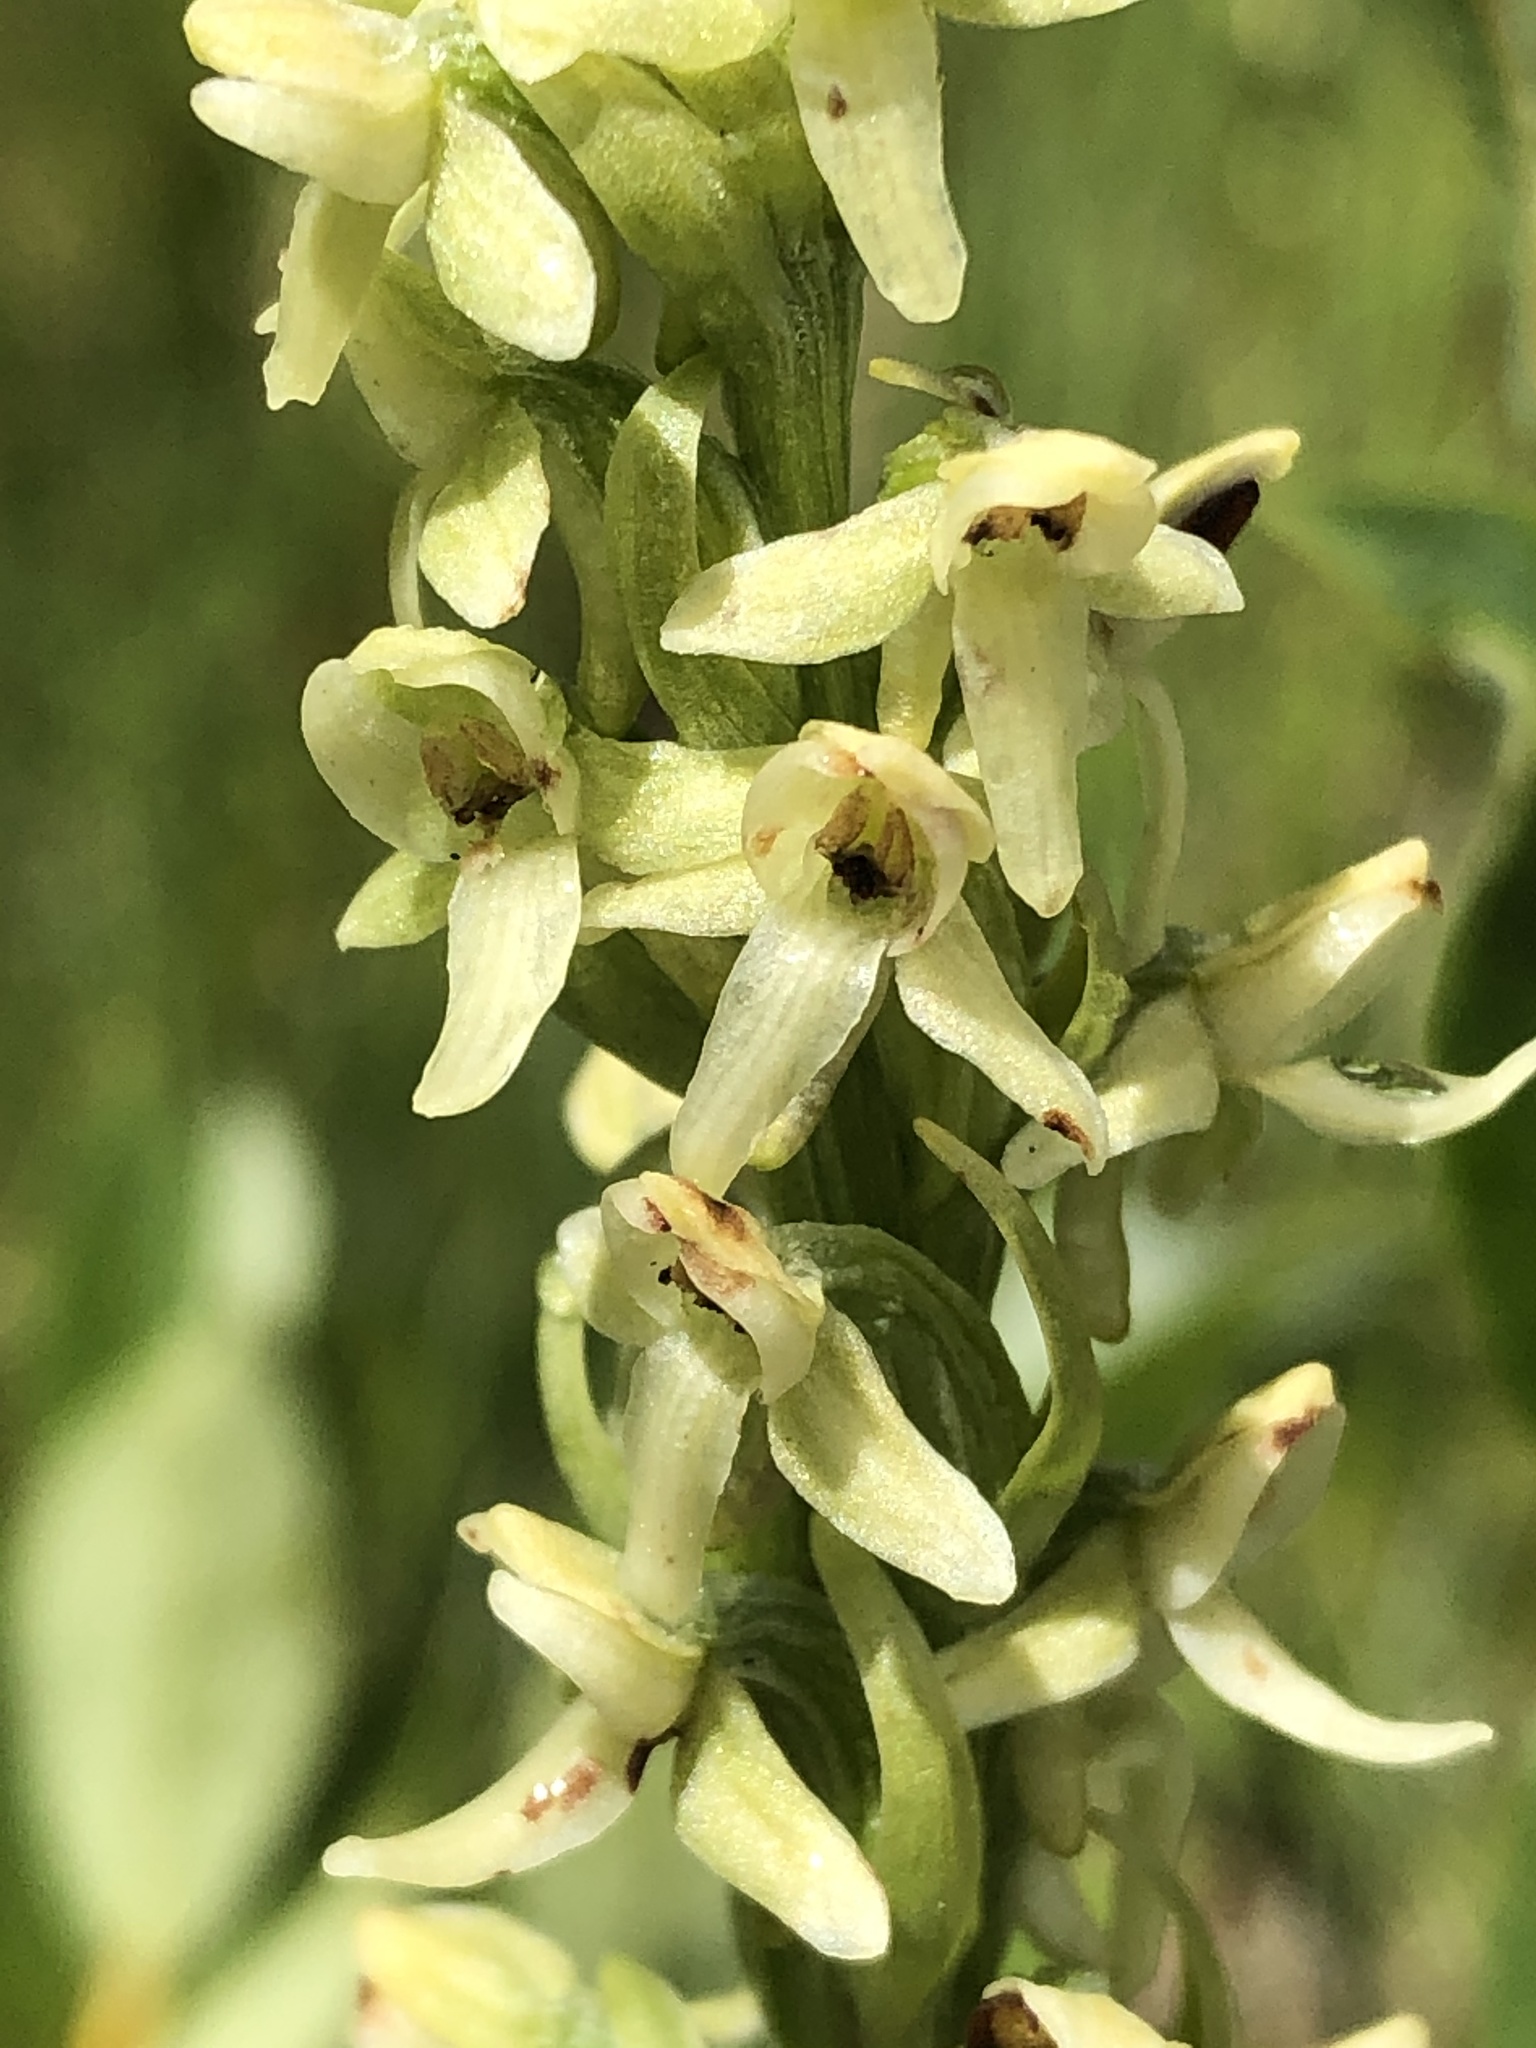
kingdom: Plantae
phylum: Tracheophyta
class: Liliopsida
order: Asparagales
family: Orchidaceae
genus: Platanthera
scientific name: Platanthera huronensis
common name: Fragrant green orchid
